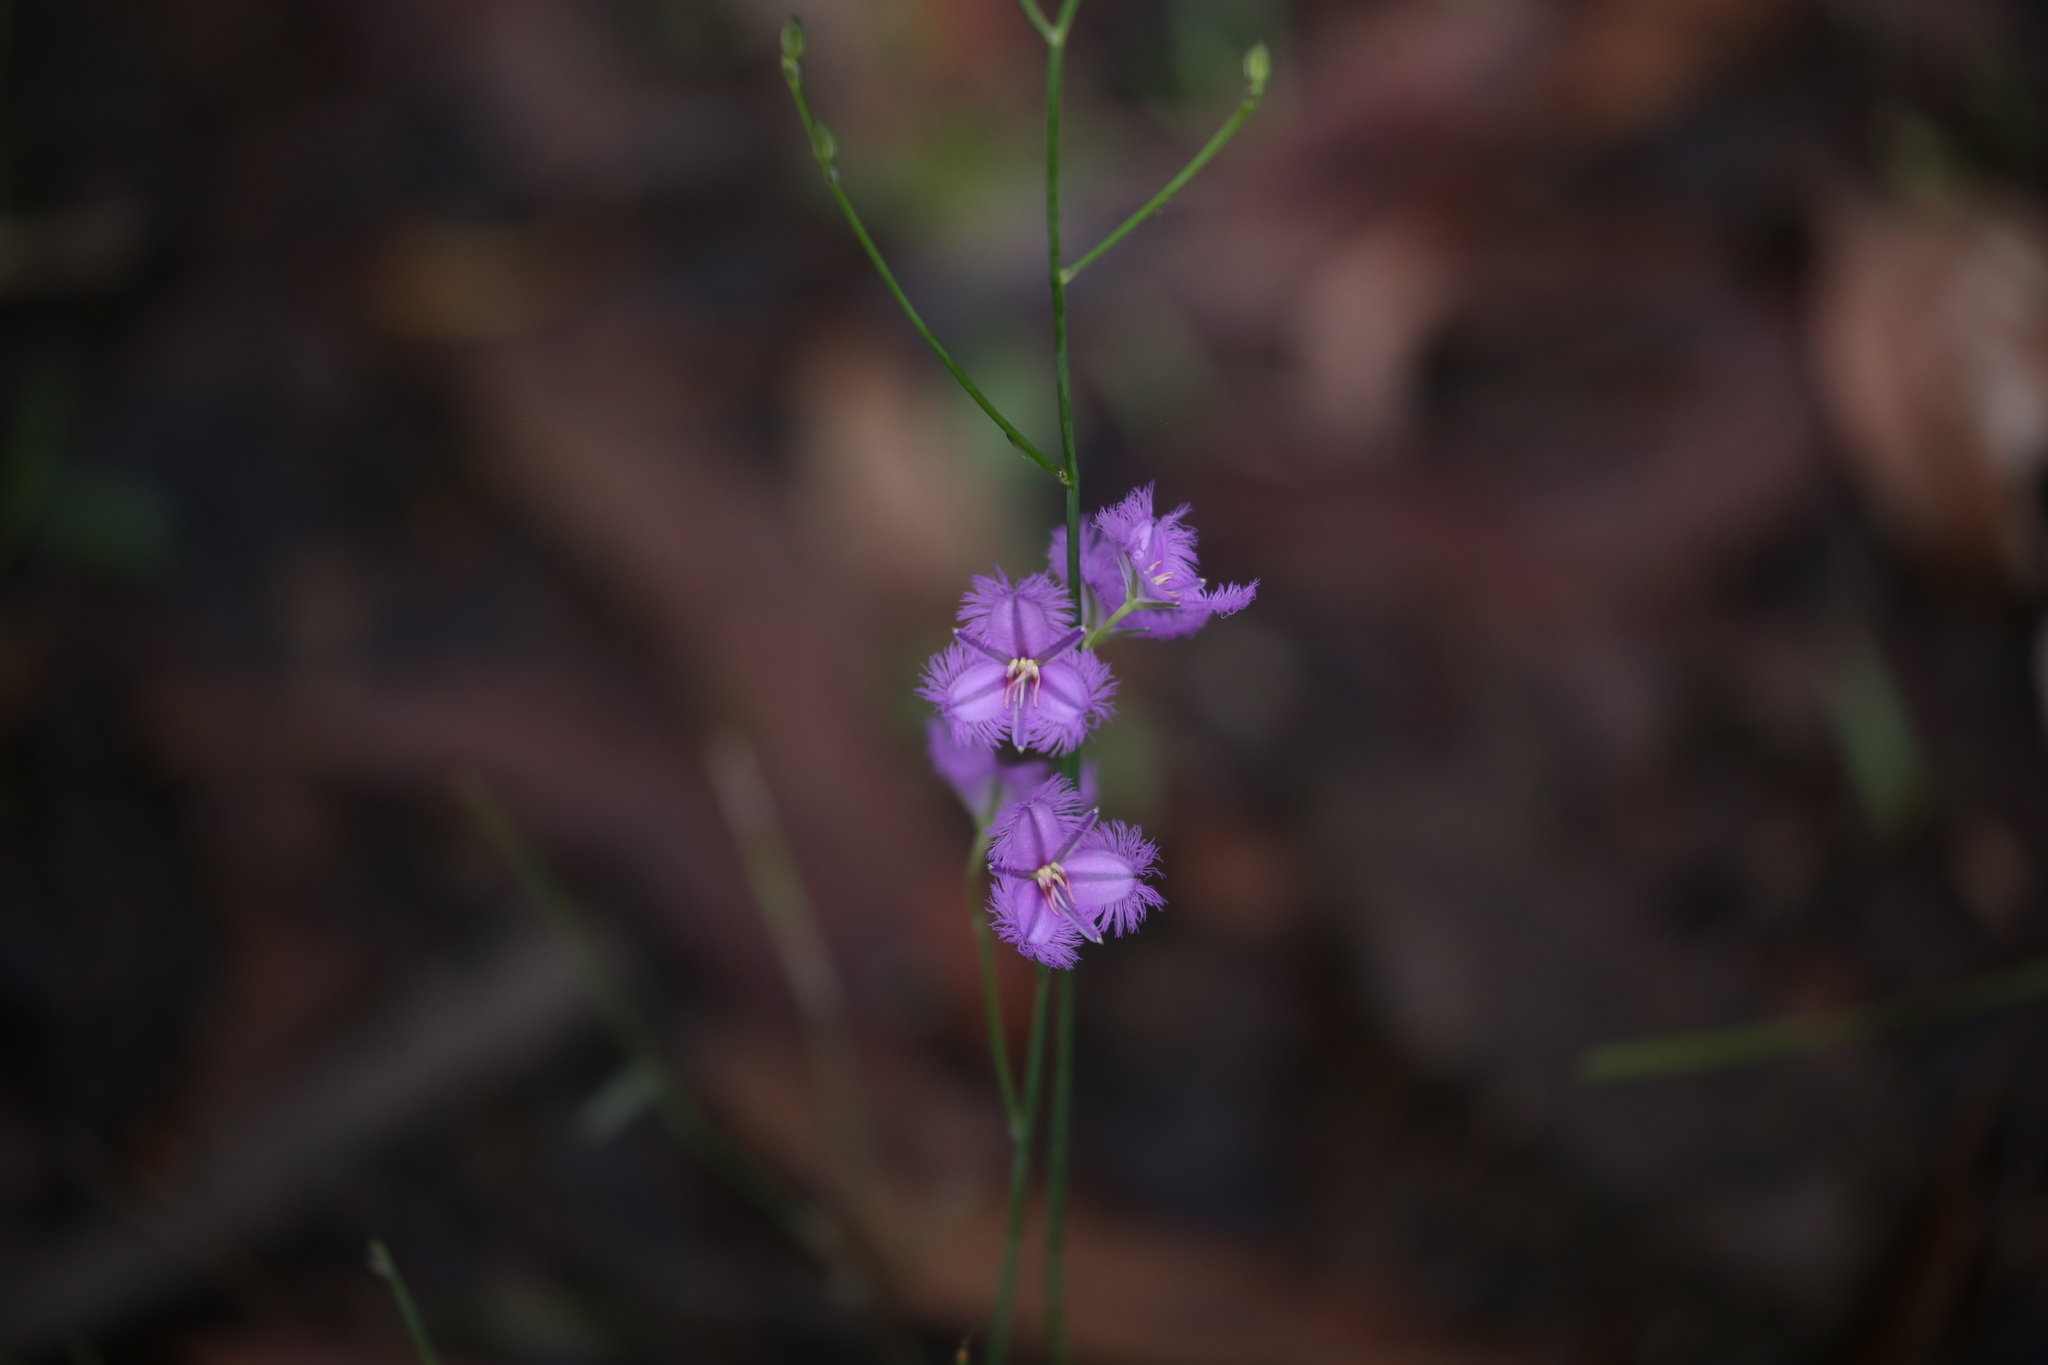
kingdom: Plantae
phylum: Tracheophyta
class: Liliopsida
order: Asparagales
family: Asparagaceae
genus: Thysanotus
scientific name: Thysanotus tuberosus
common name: Common fringed-lily
